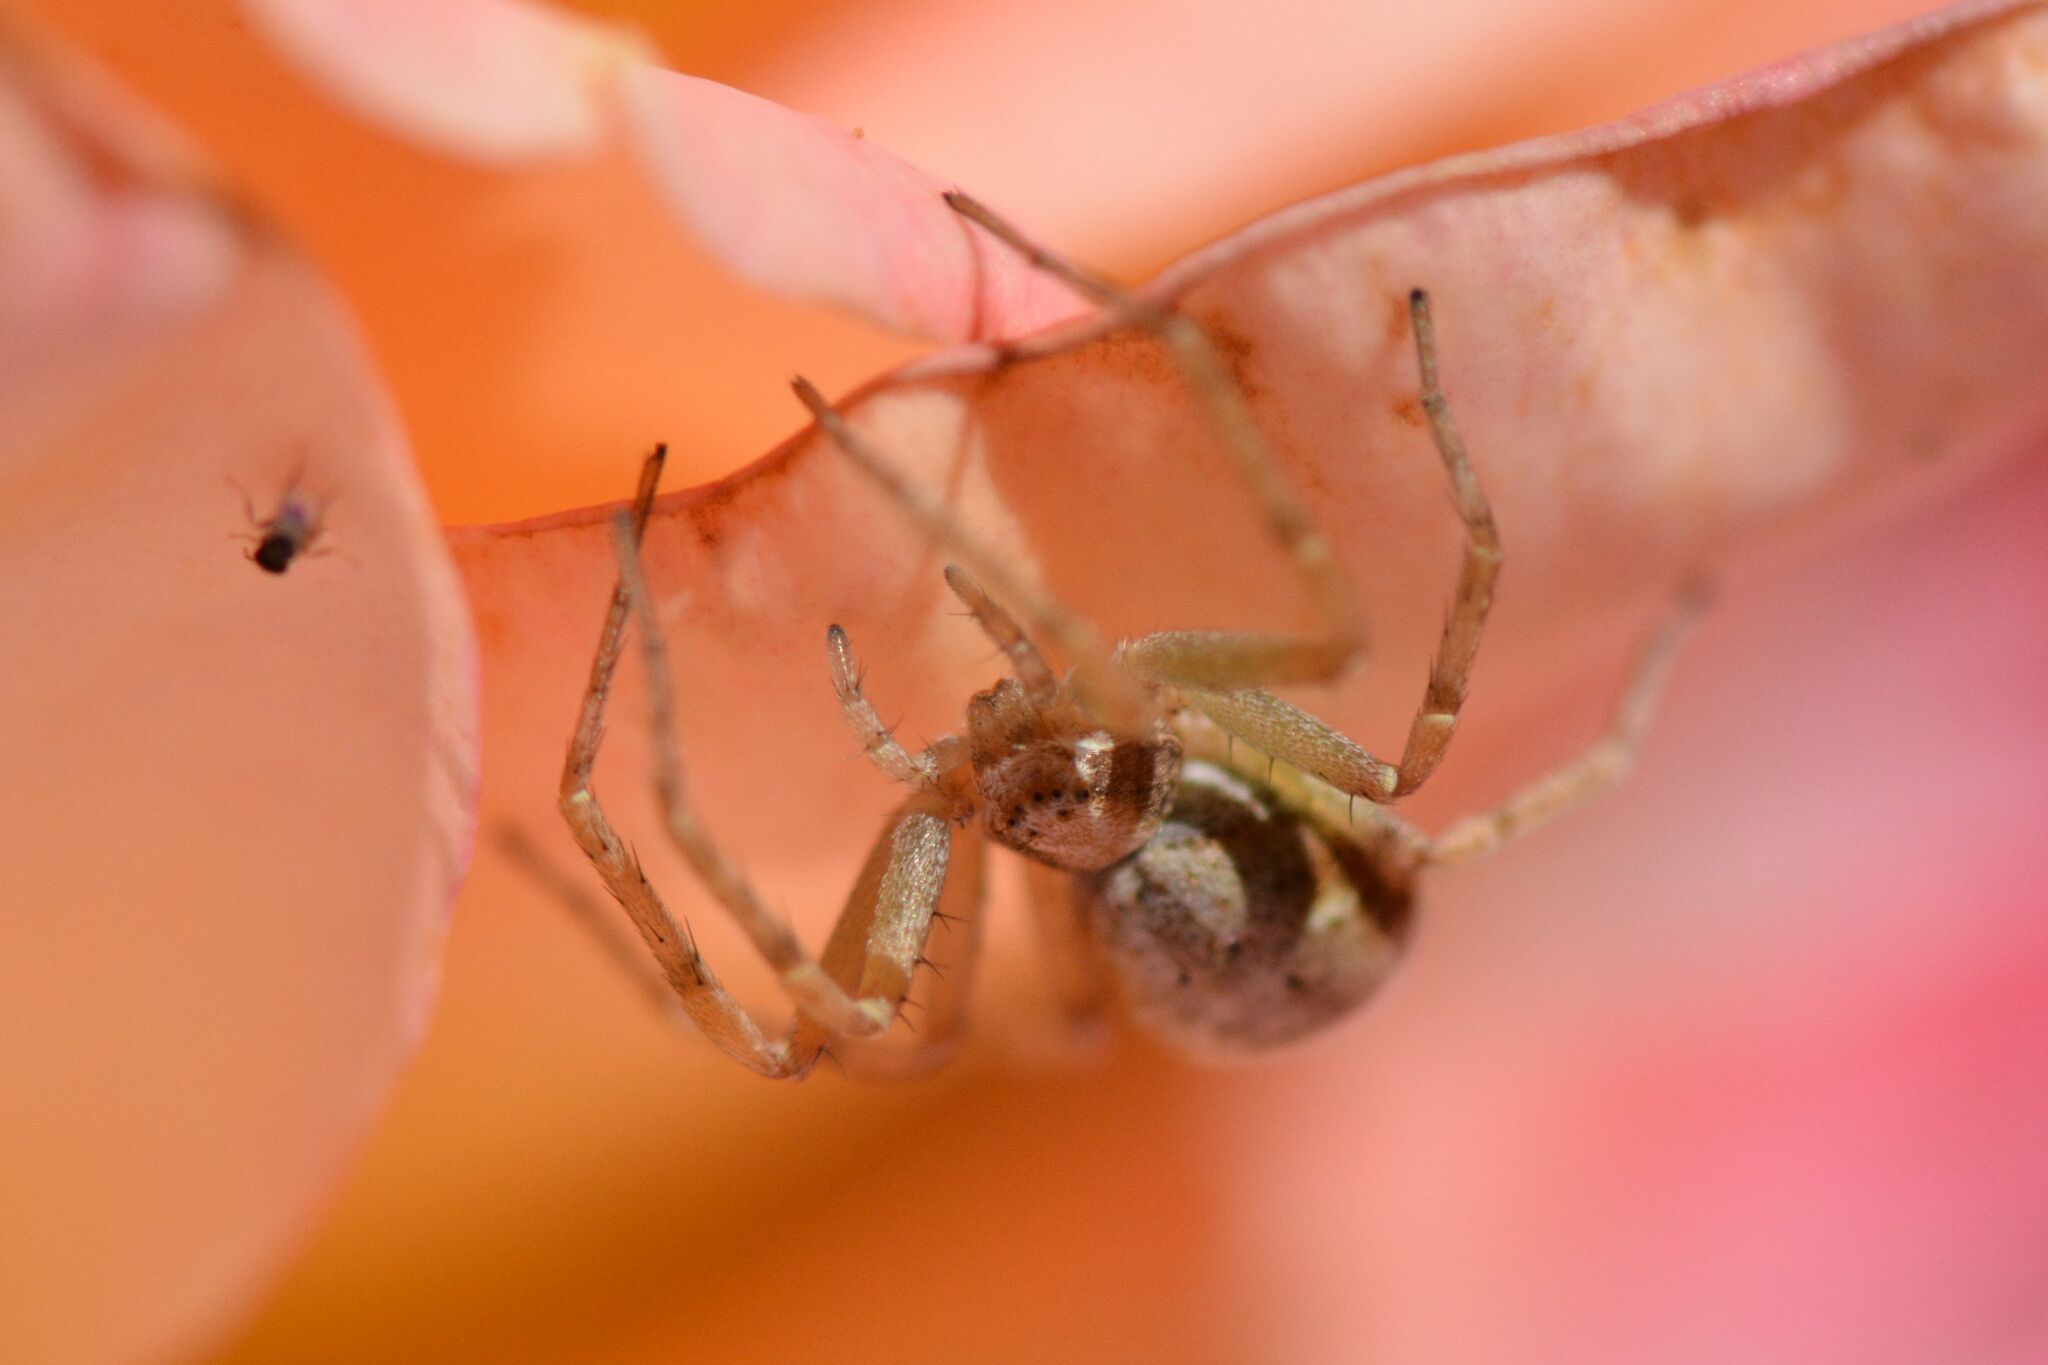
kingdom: Animalia
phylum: Arthropoda
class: Arachnida
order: Araneae
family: Philodromidae
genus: Philodromus
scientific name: Philodromus
